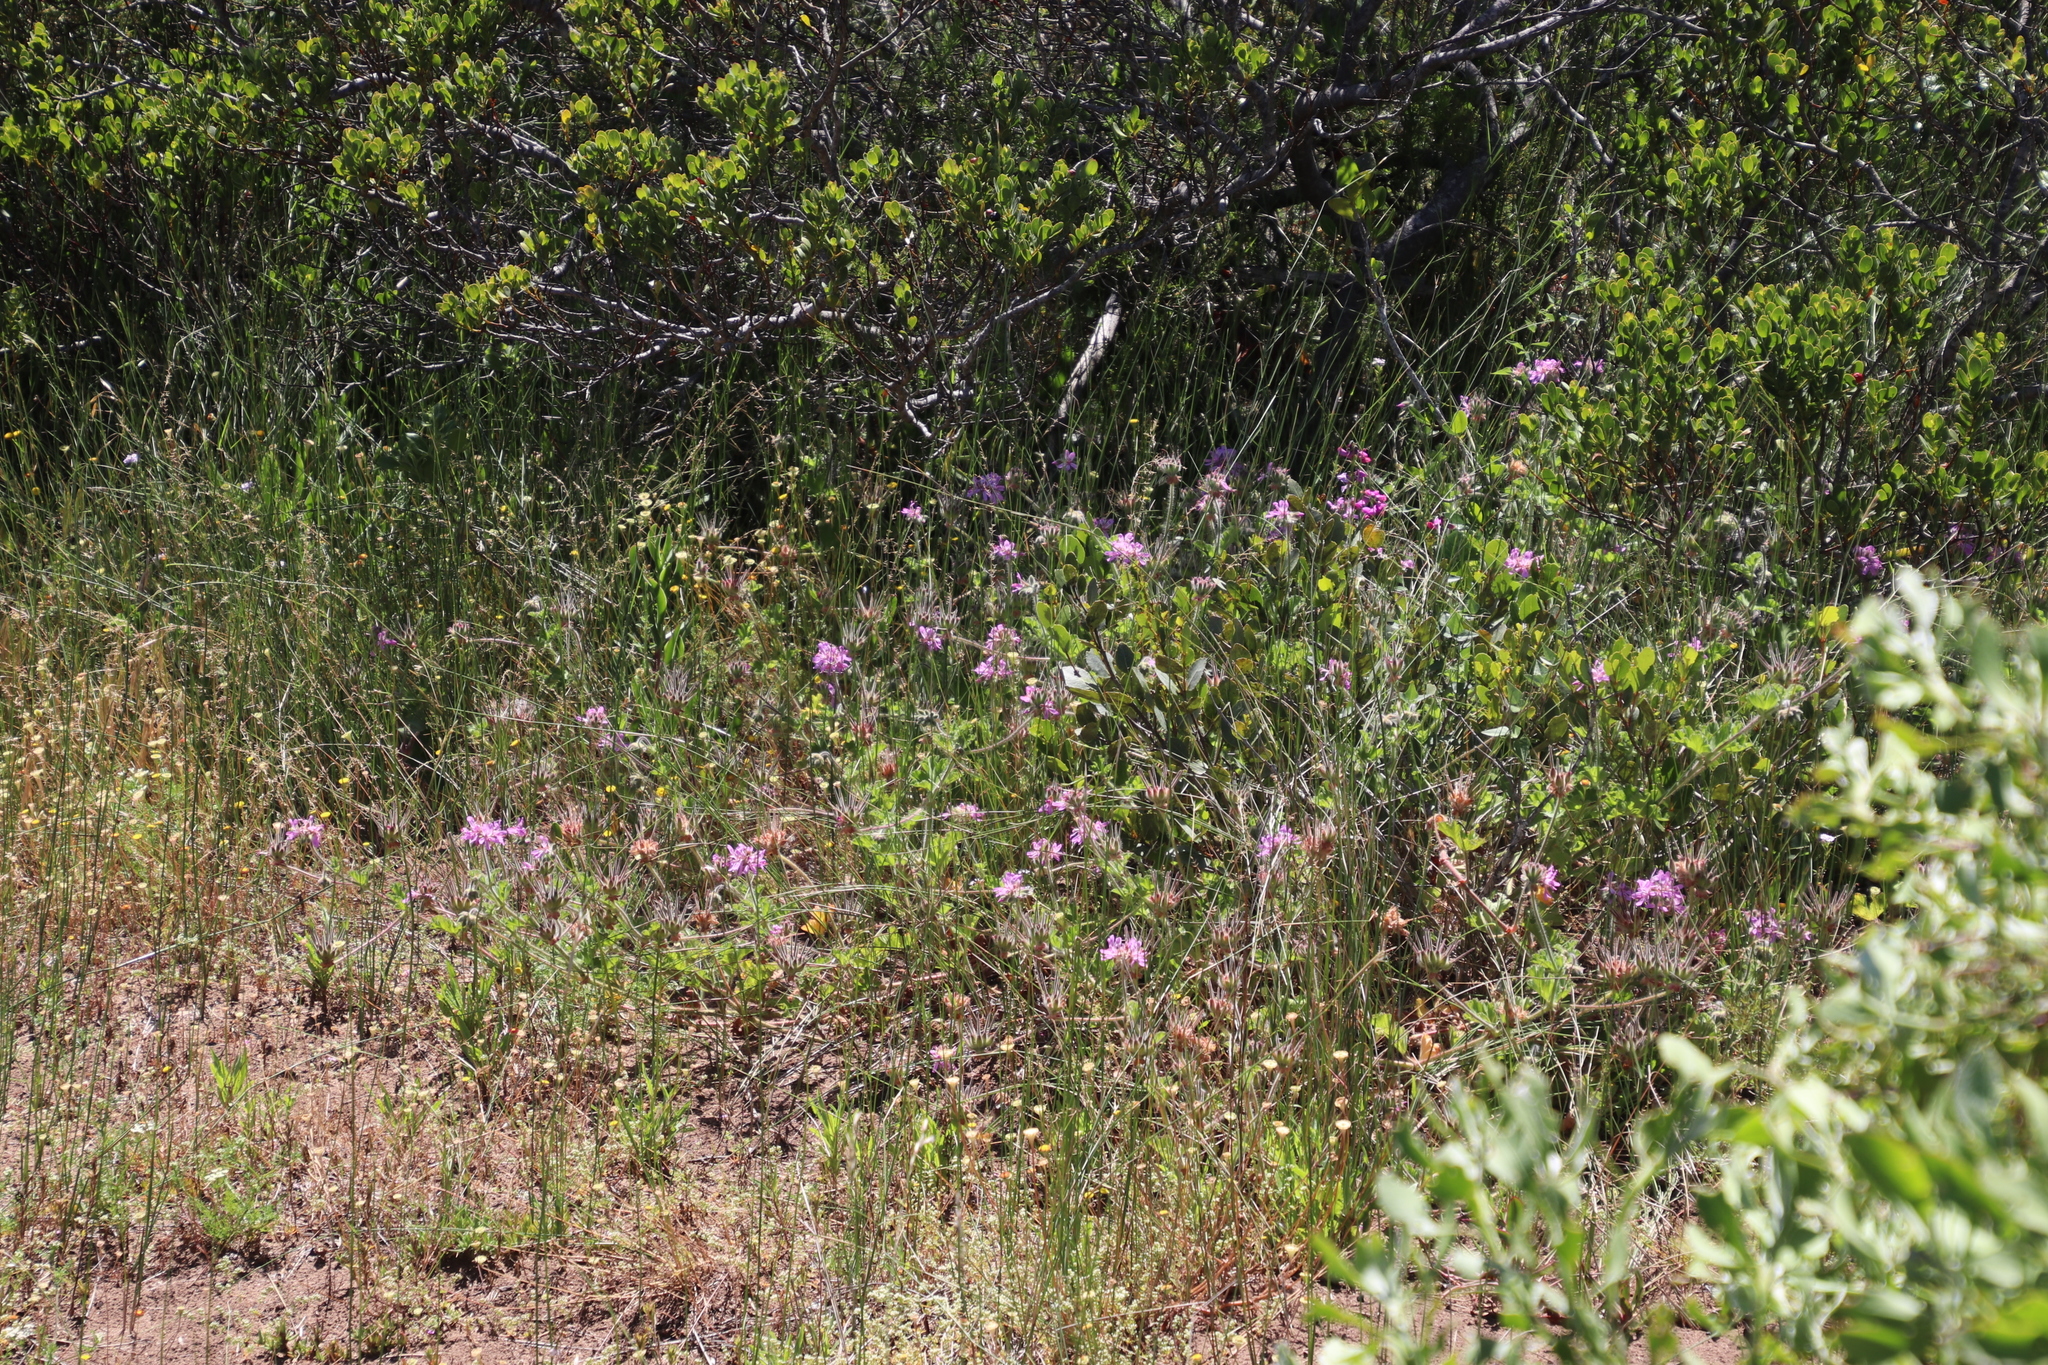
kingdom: Plantae
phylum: Tracheophyta
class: Magnoliopsida
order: Geraniales
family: Geraniaceae
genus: Pelargonium
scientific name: Pelargonium capitatum
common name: Rose scented geranium
